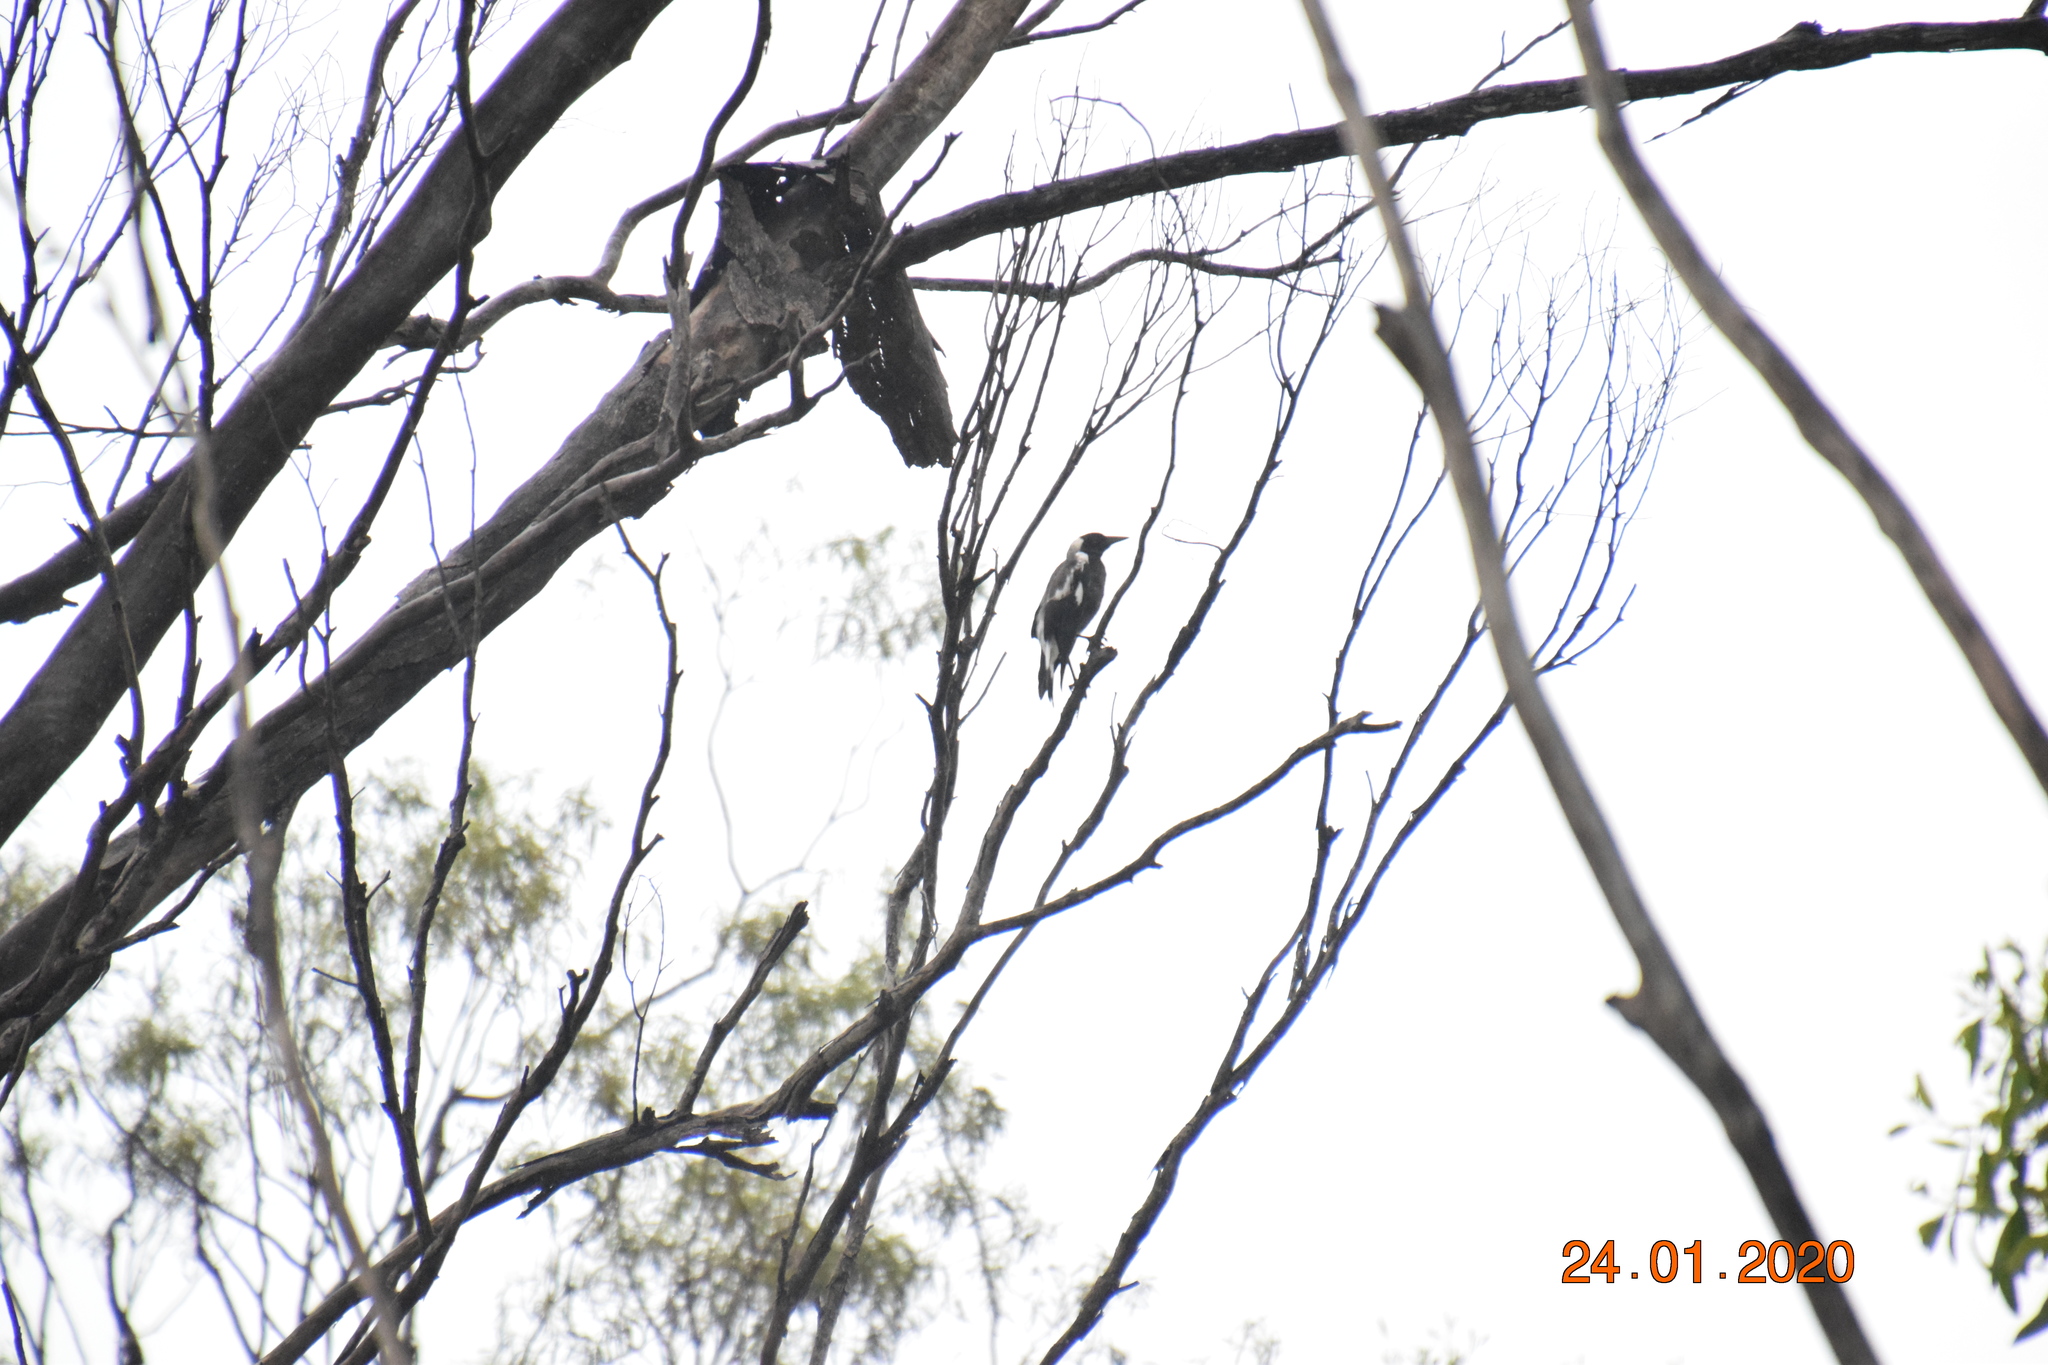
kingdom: Animalia
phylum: Chordata
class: Aves
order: Passeriformes
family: Cracticidae
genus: Gymnorhina
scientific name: Gymnorhina tibicen
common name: Australian magpie
